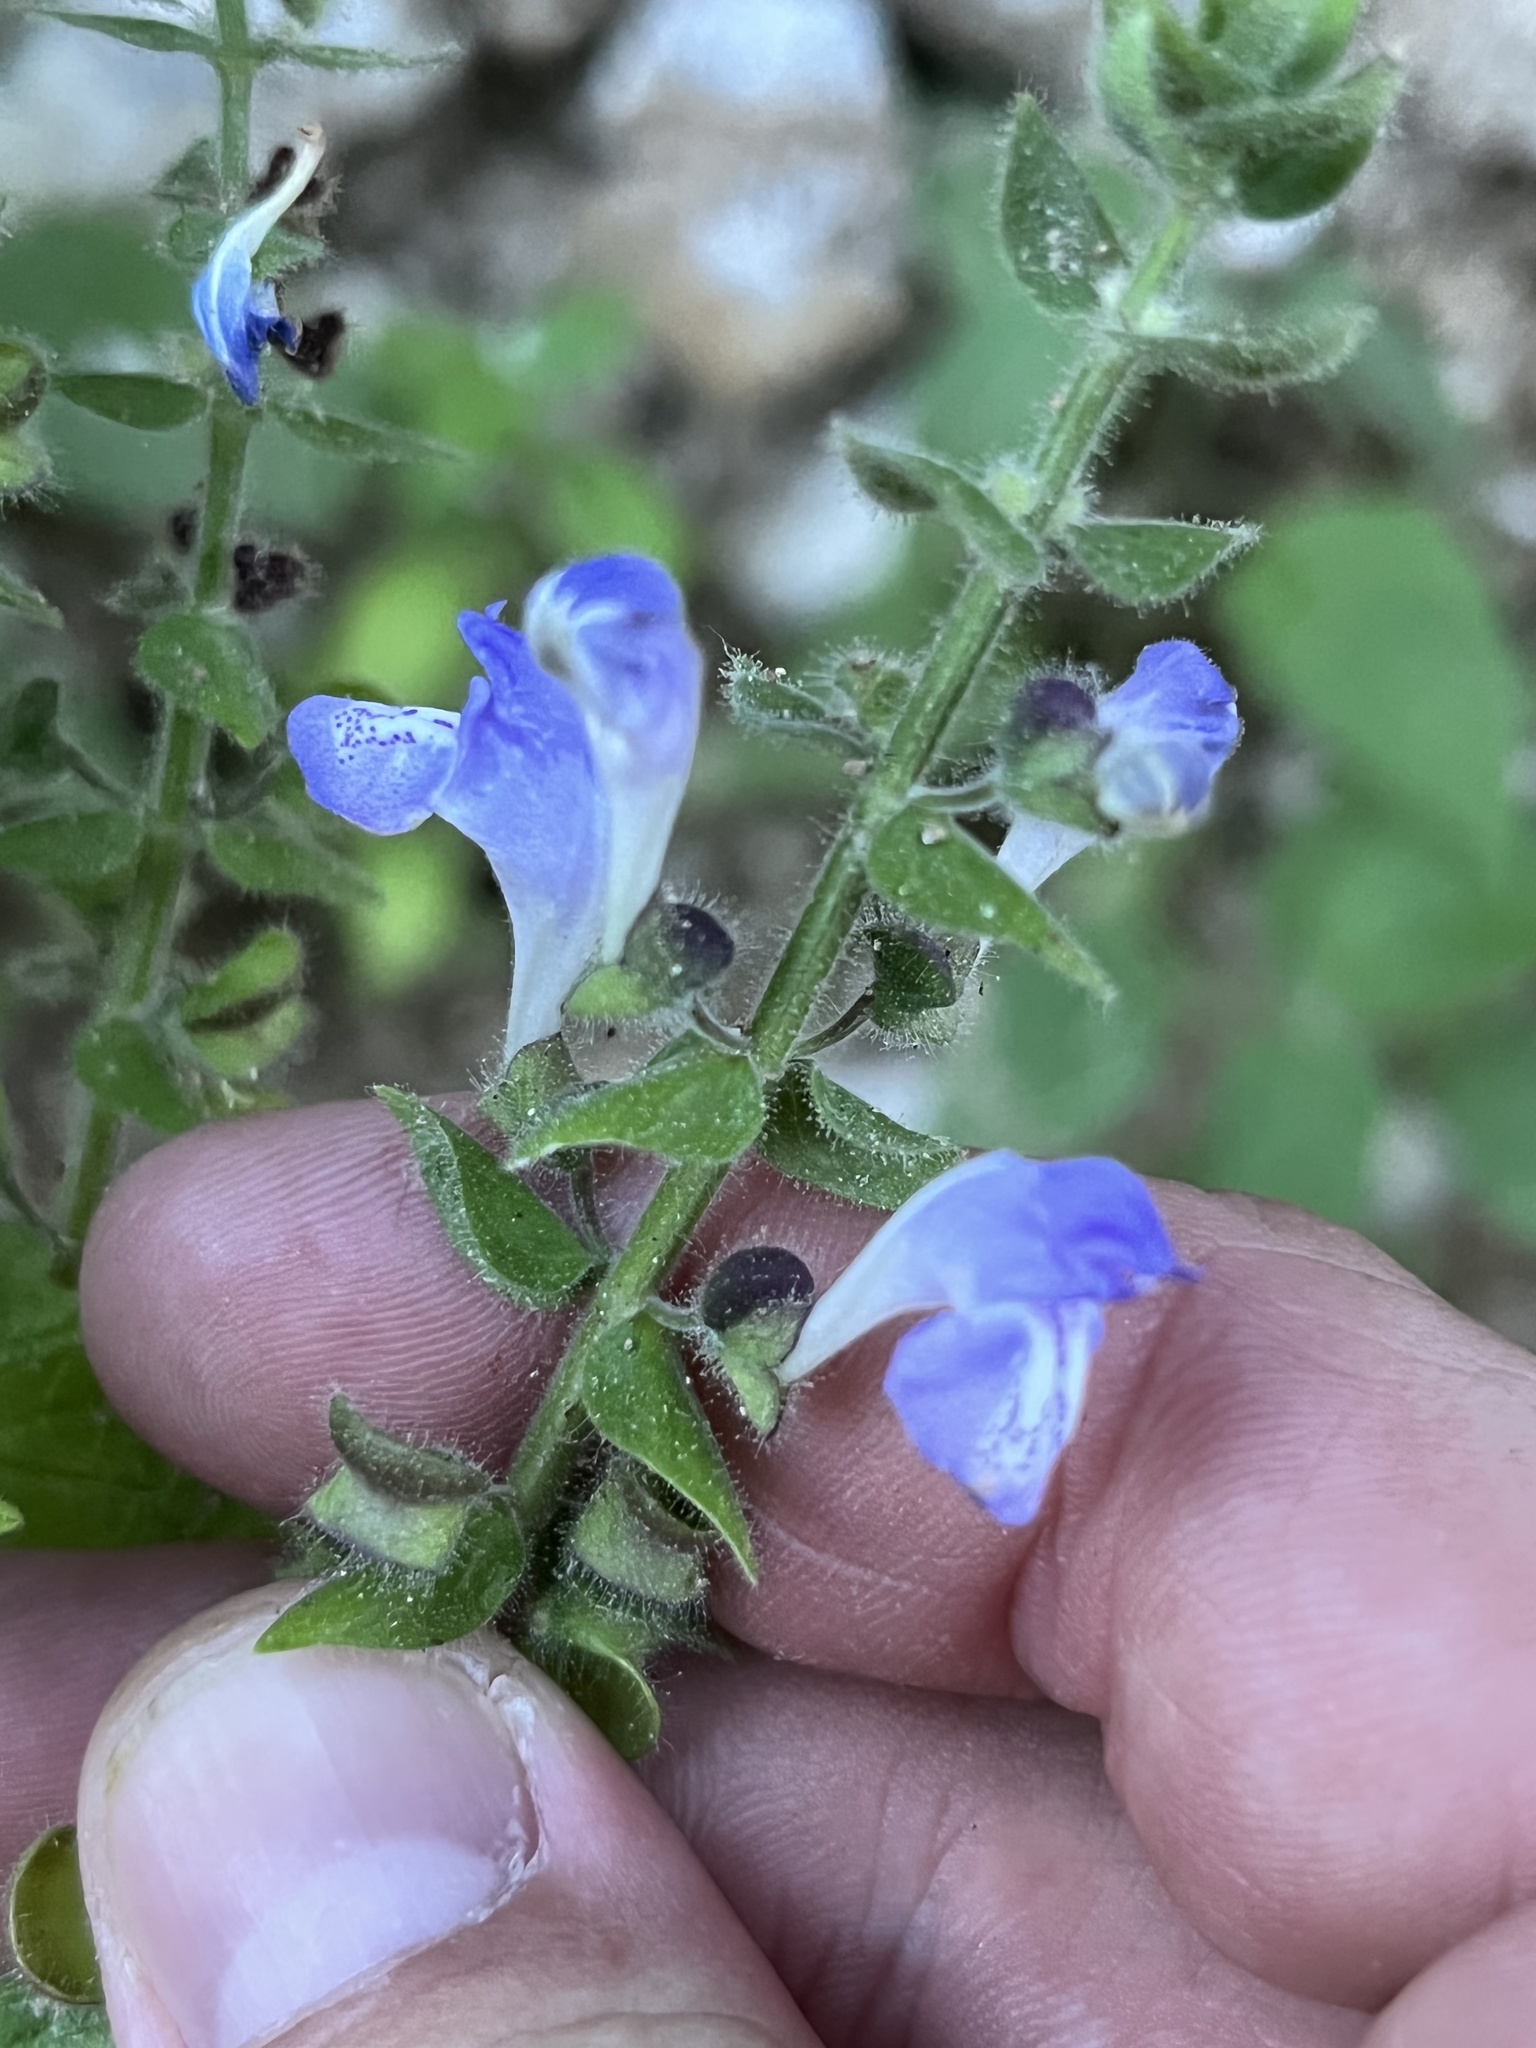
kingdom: Plantae
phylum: Tracheophyta
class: Magnoliopsida
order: Lamiales
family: Lamiaceae
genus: Scutellaria
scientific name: Scutellaria ovata
